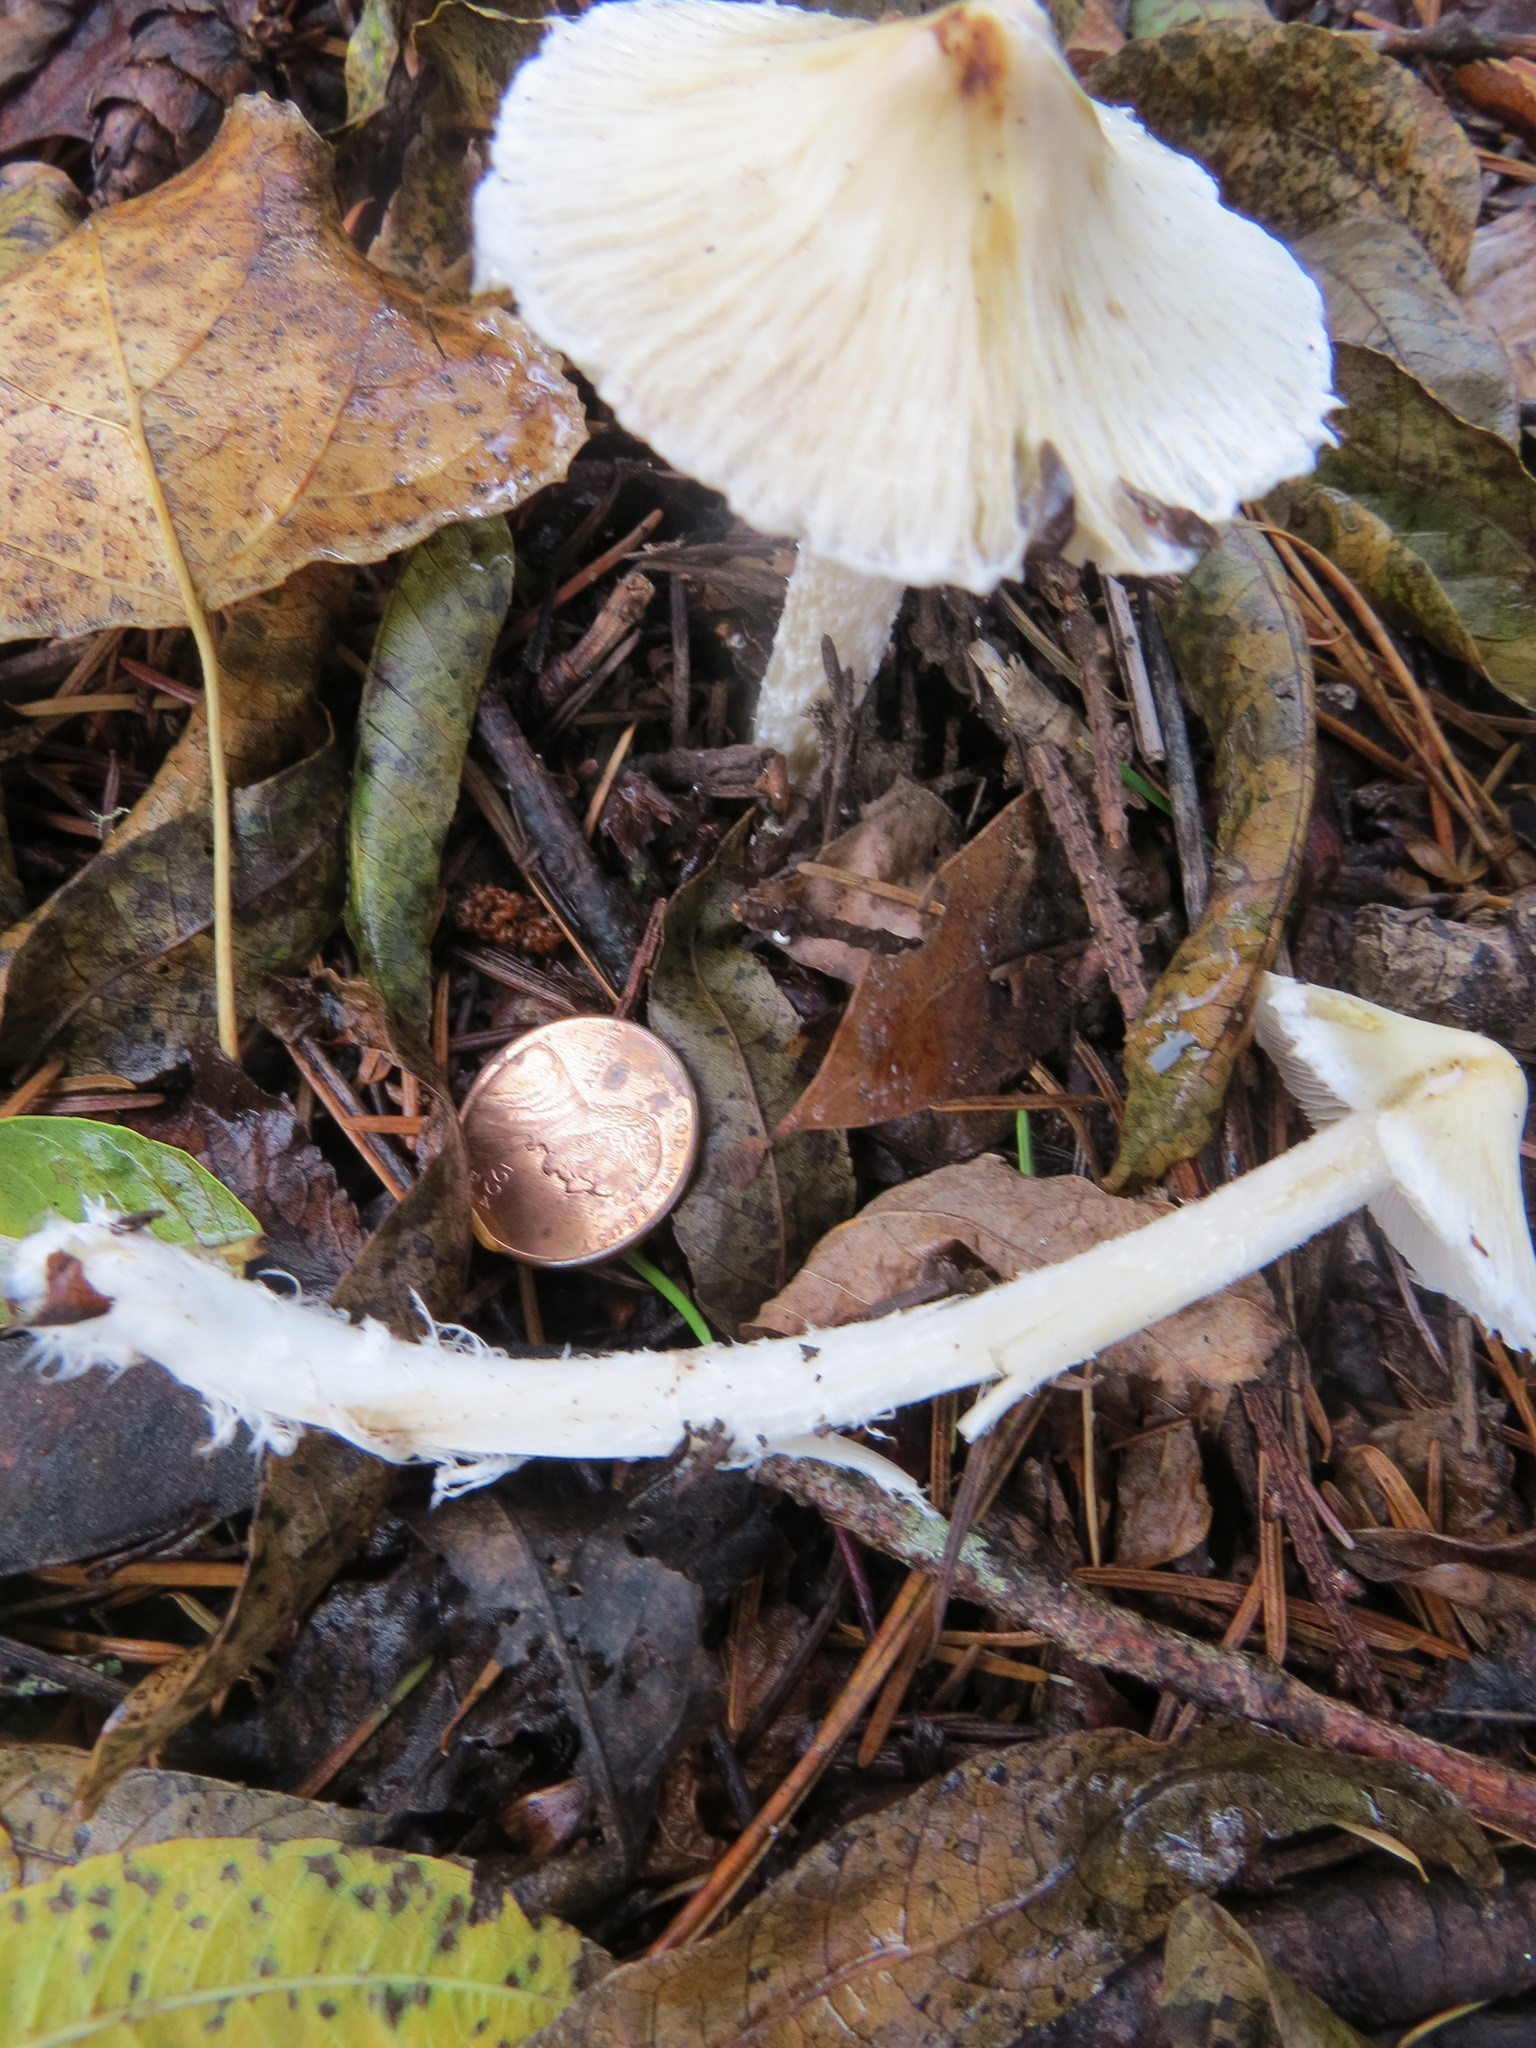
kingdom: Fungi
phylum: Basidiomycota
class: Agaricomycetes
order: Agaricales
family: Inocybaceae
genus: Pseudosperma
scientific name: Pseudosperma sororium
